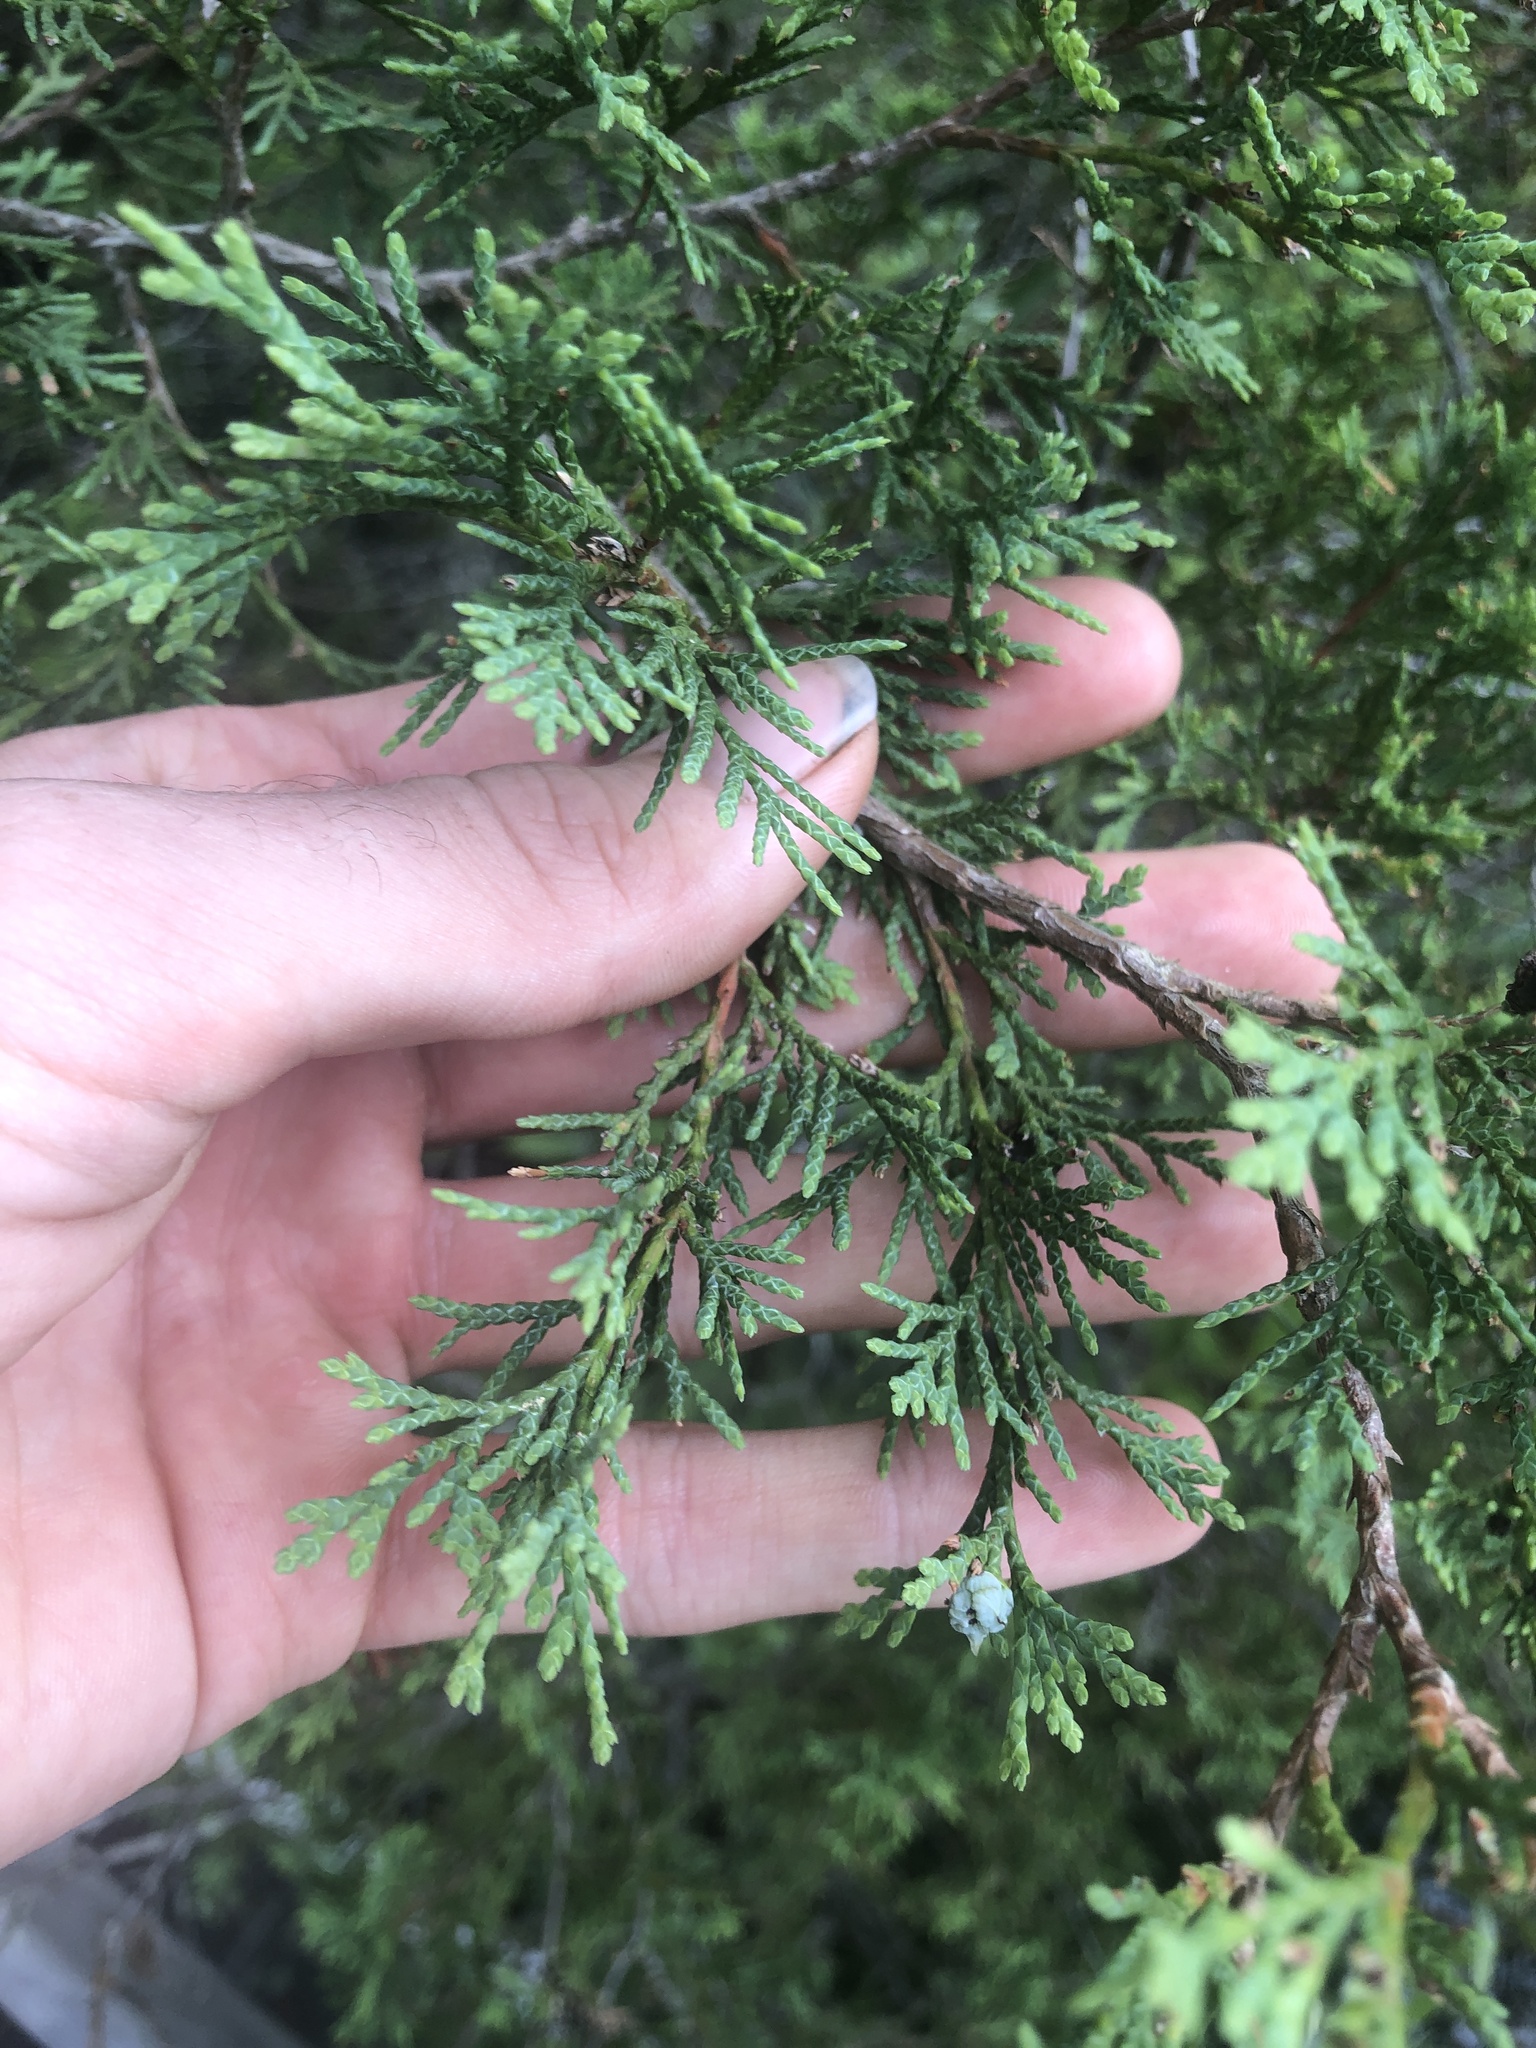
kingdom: Plantae
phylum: Tracheophyta
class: Pinopsida
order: Pinales
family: Cupressaceae
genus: Chamaecyparis
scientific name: Chamaecyparis thyoides
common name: Atlantic white cedar
